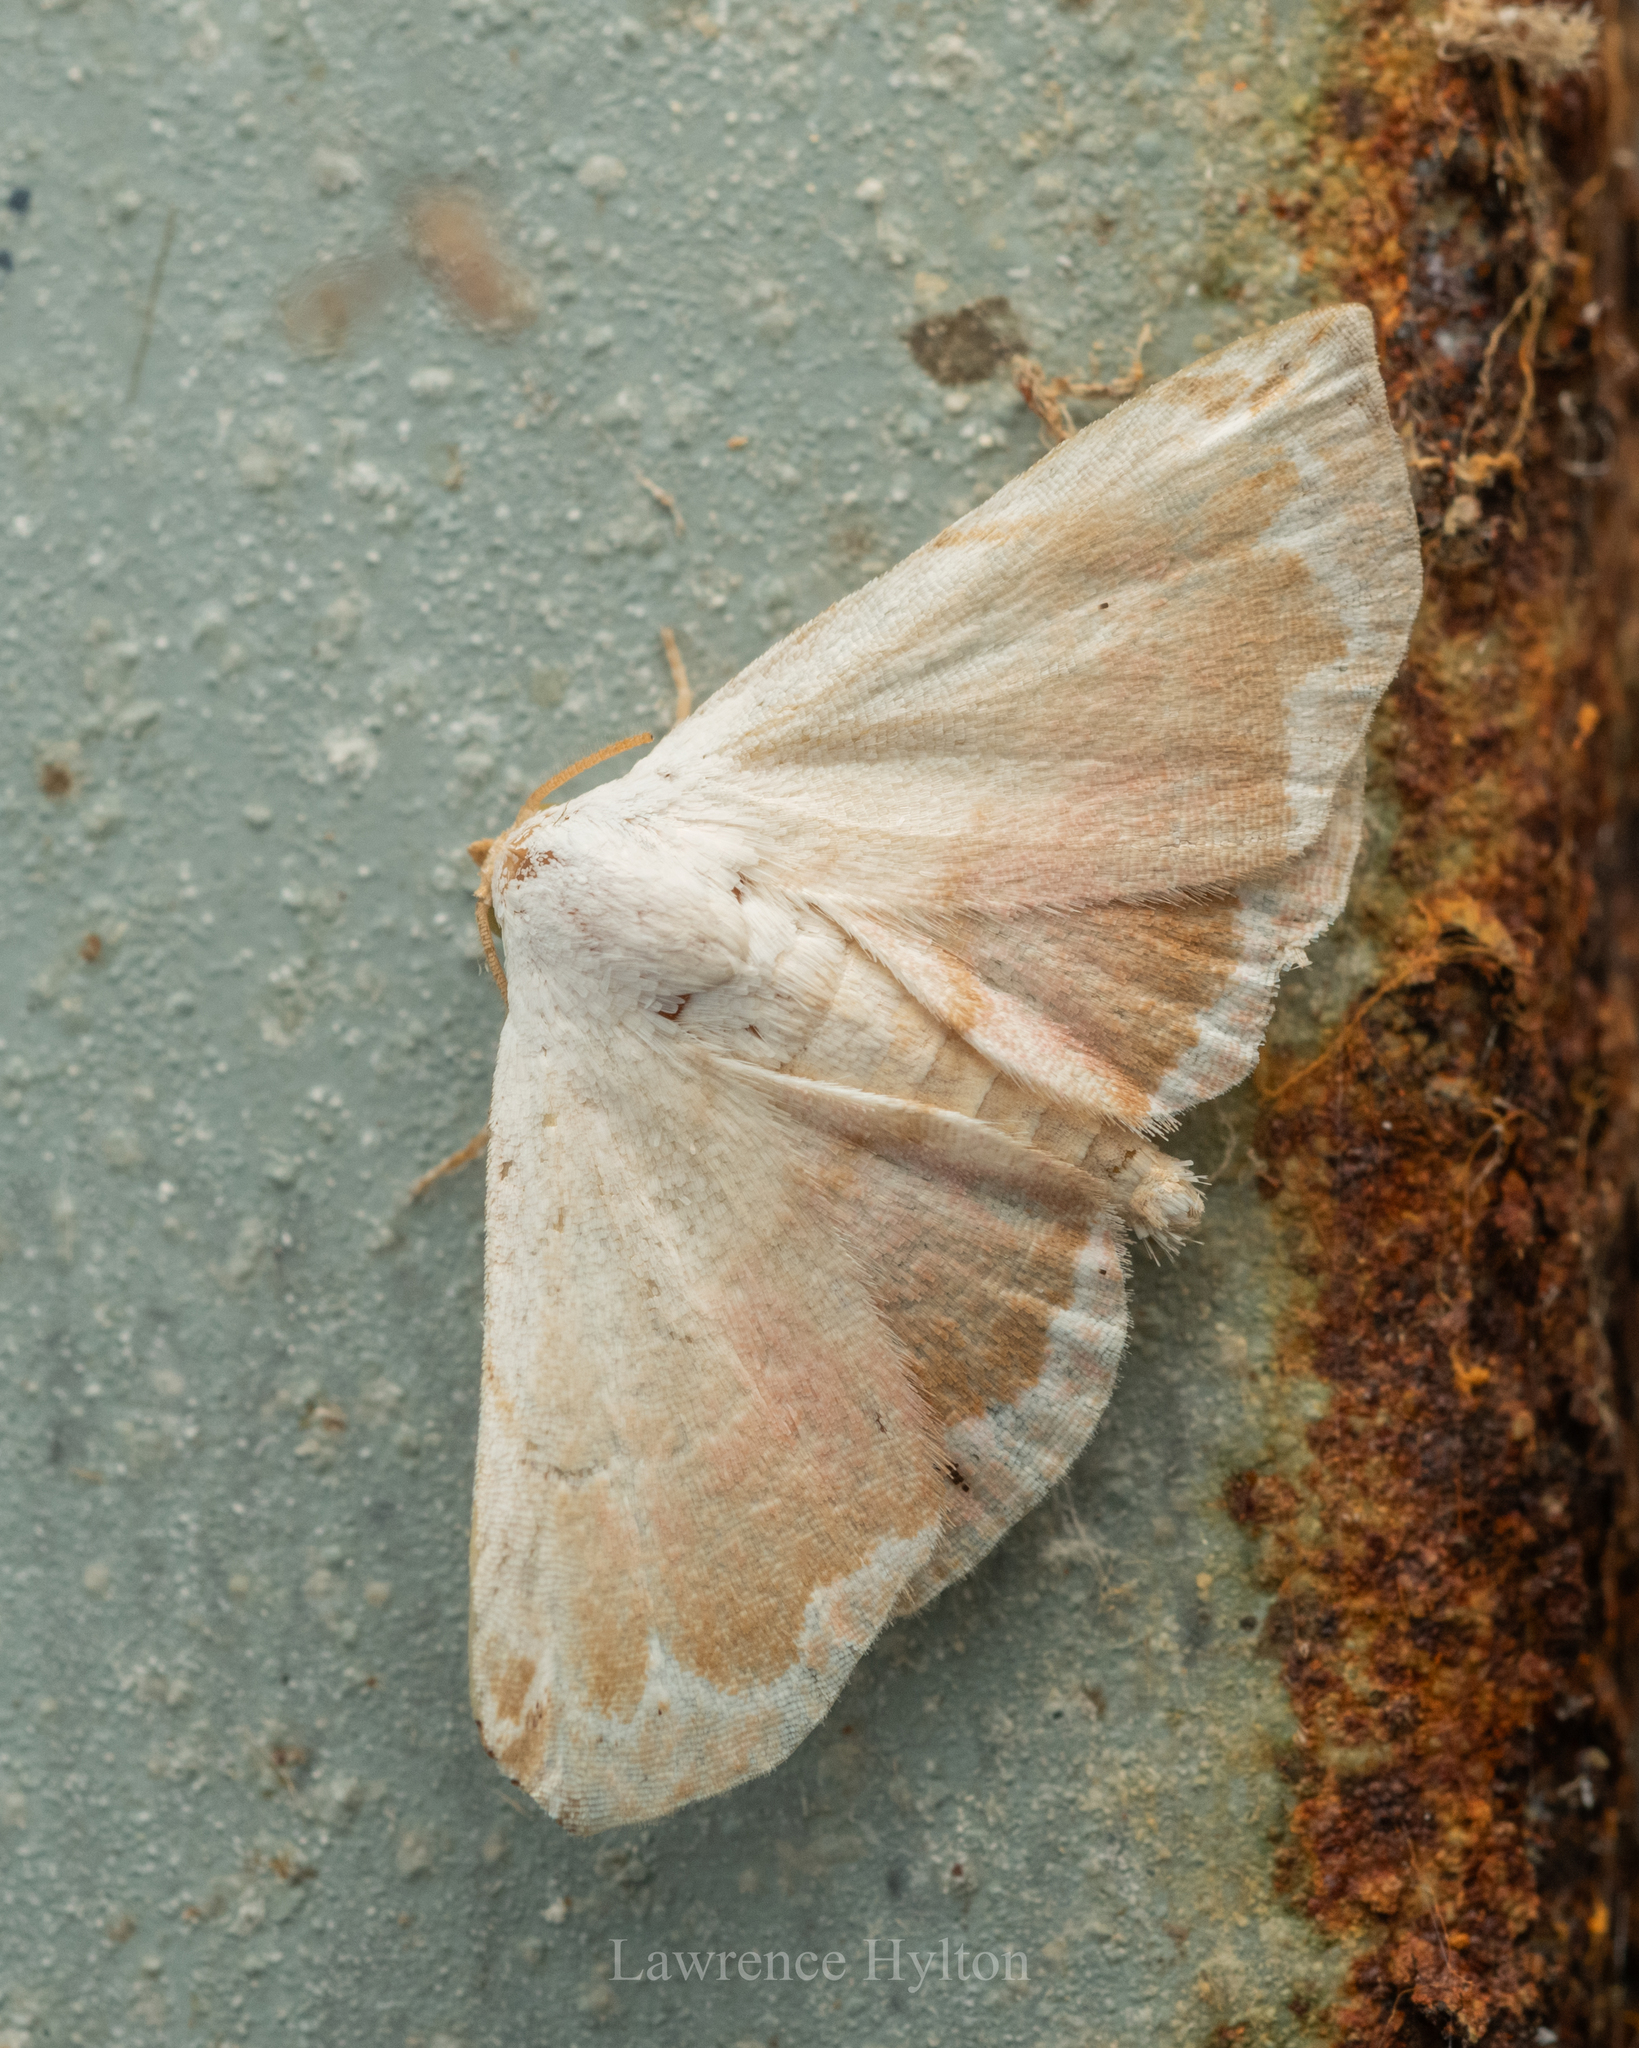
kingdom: Animalia
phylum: Arthropoda
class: Insecta
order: Lepidoptera
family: Noctuidae
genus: Eublemma
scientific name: Eublemma roseonivea
